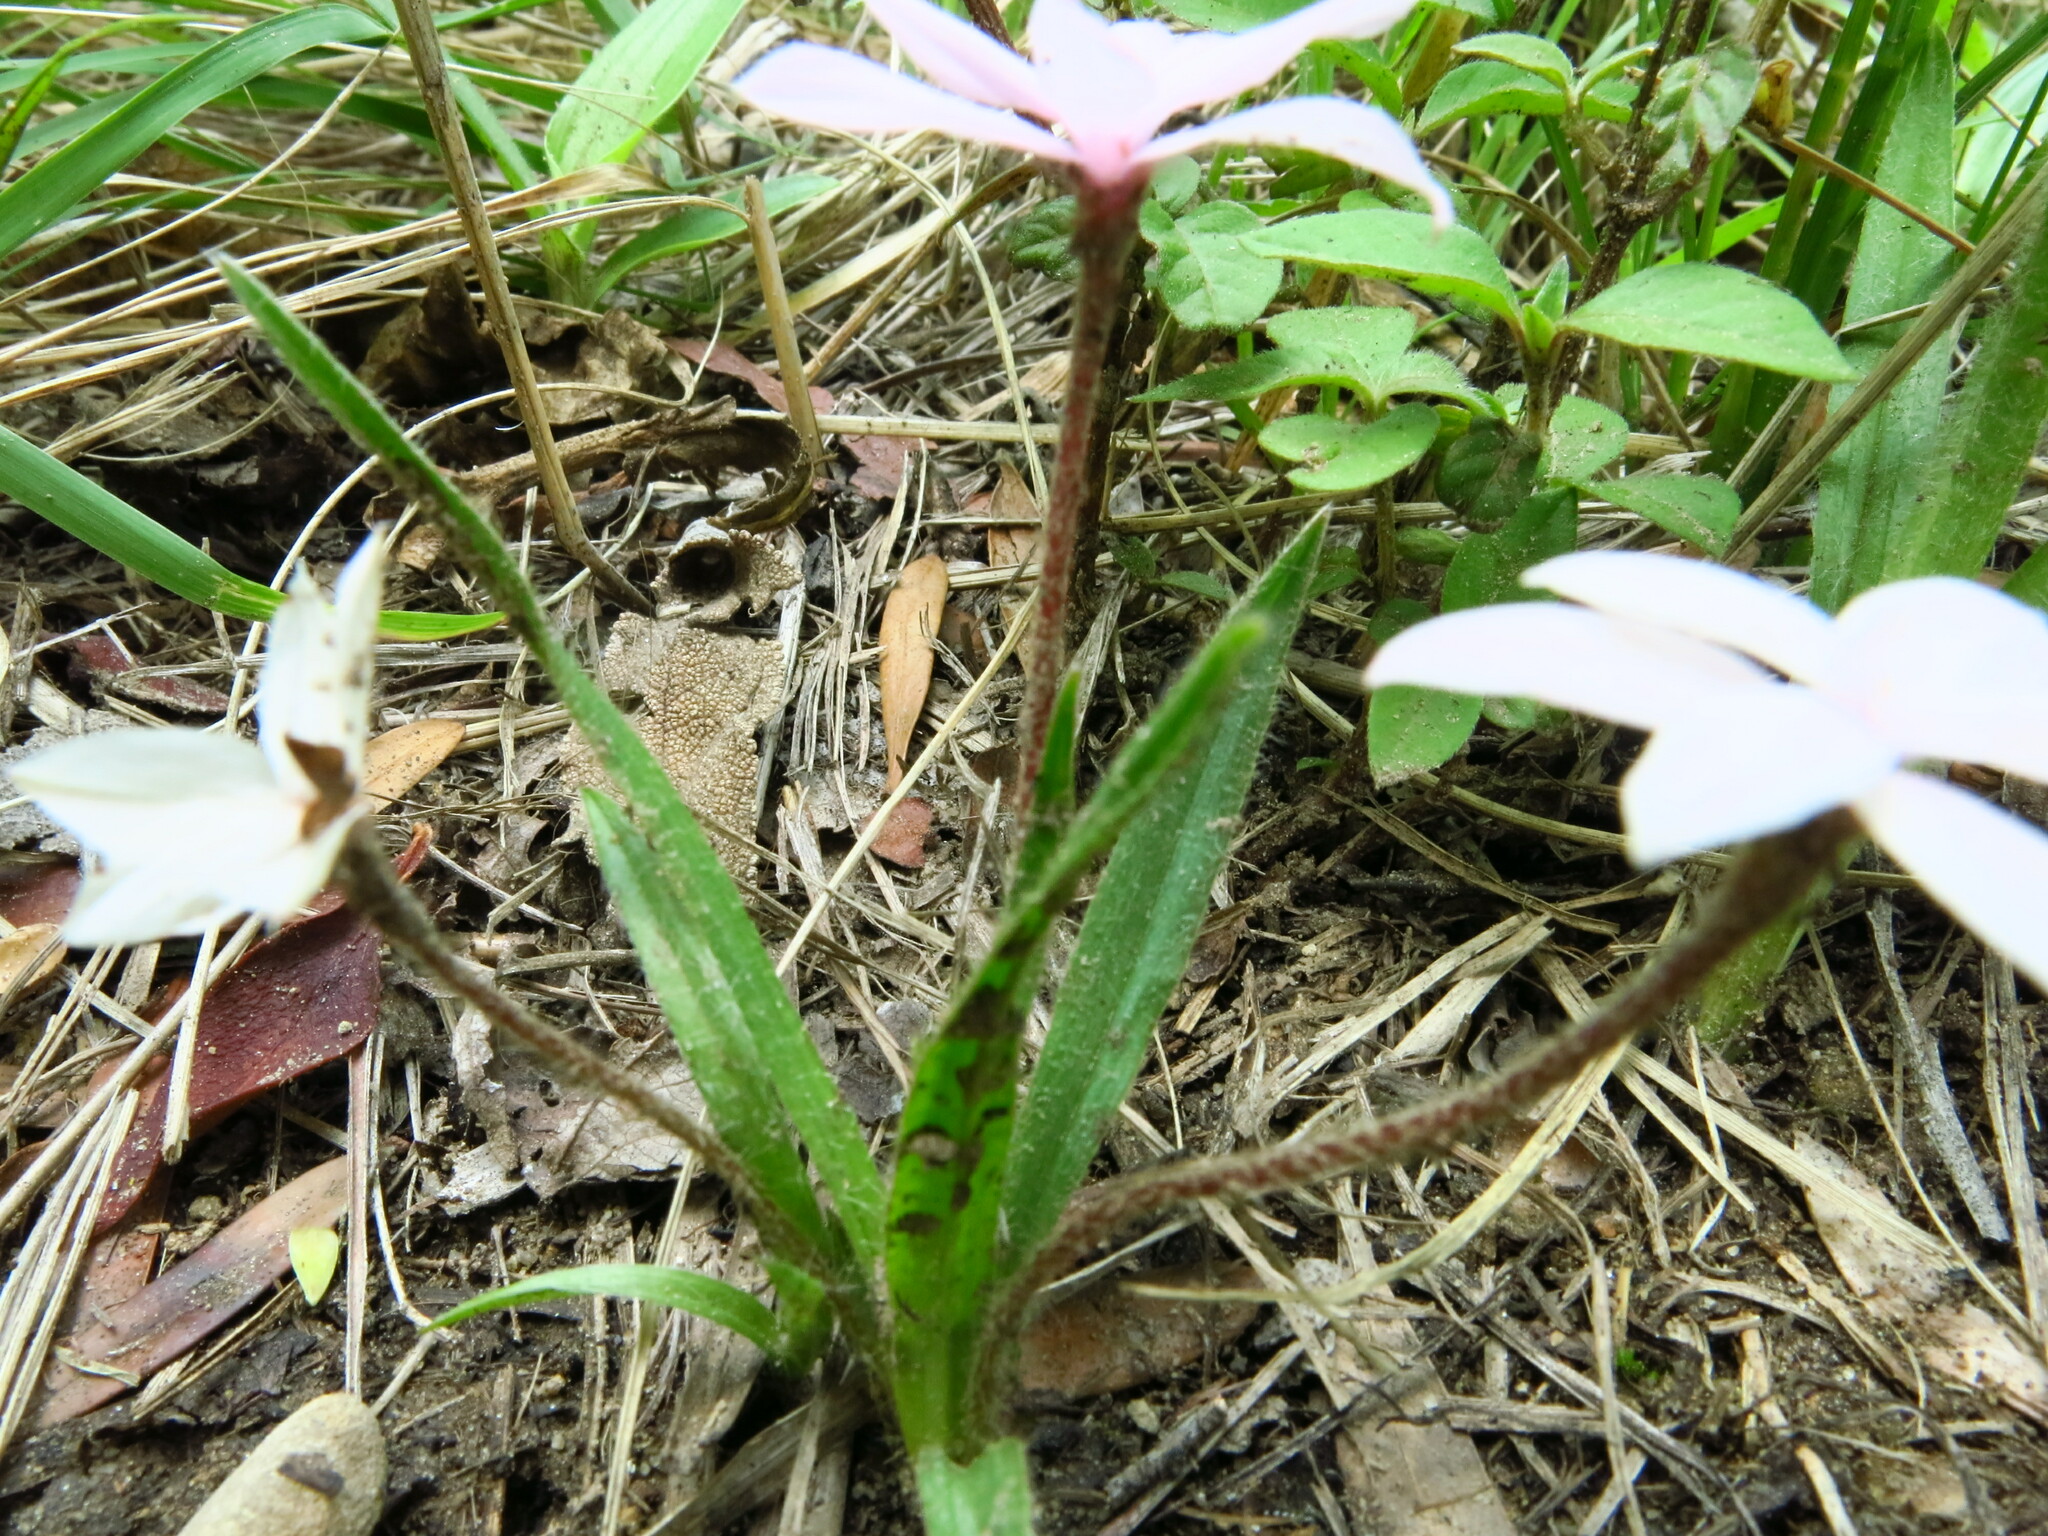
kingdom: Plantae
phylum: Tracheophyta
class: Liliopsida
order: Asparagales
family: Hypoxidaceae
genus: Hypoxis
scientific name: Hypoxis baurii
